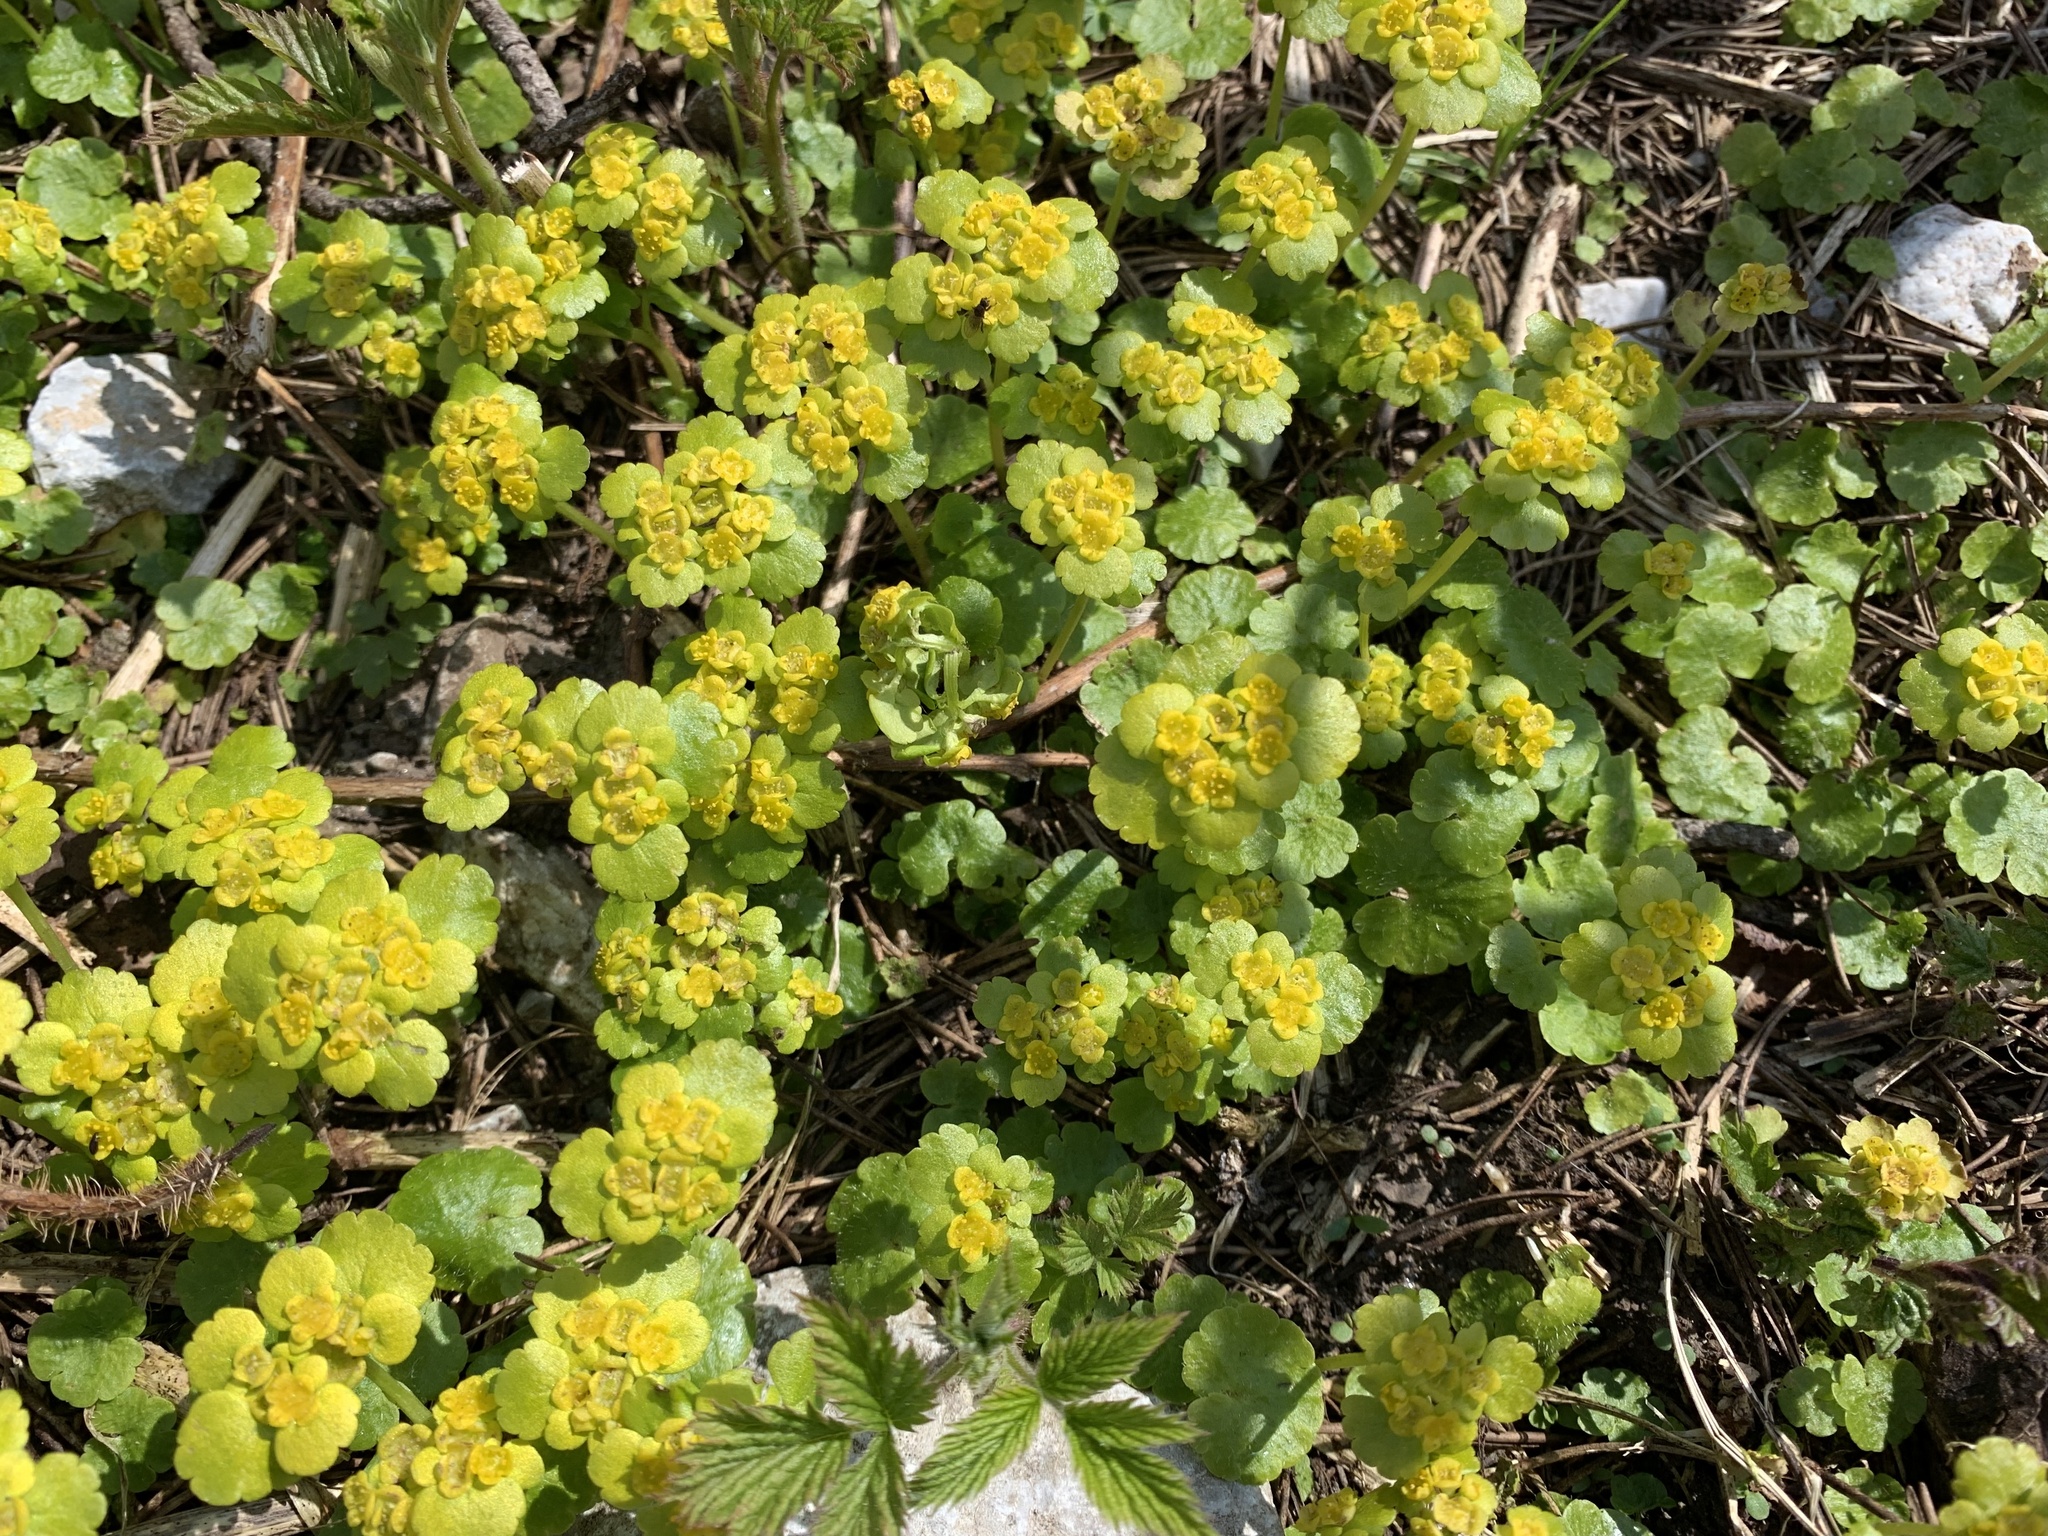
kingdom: Plantae
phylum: Tracheophyta
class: Magnoliopsida
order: Saxifragales
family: Saxifragaceae
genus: Chrysosplenium
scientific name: Chrysosplenium alternifolium
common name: Alternate-leaved golden-saxifrage
